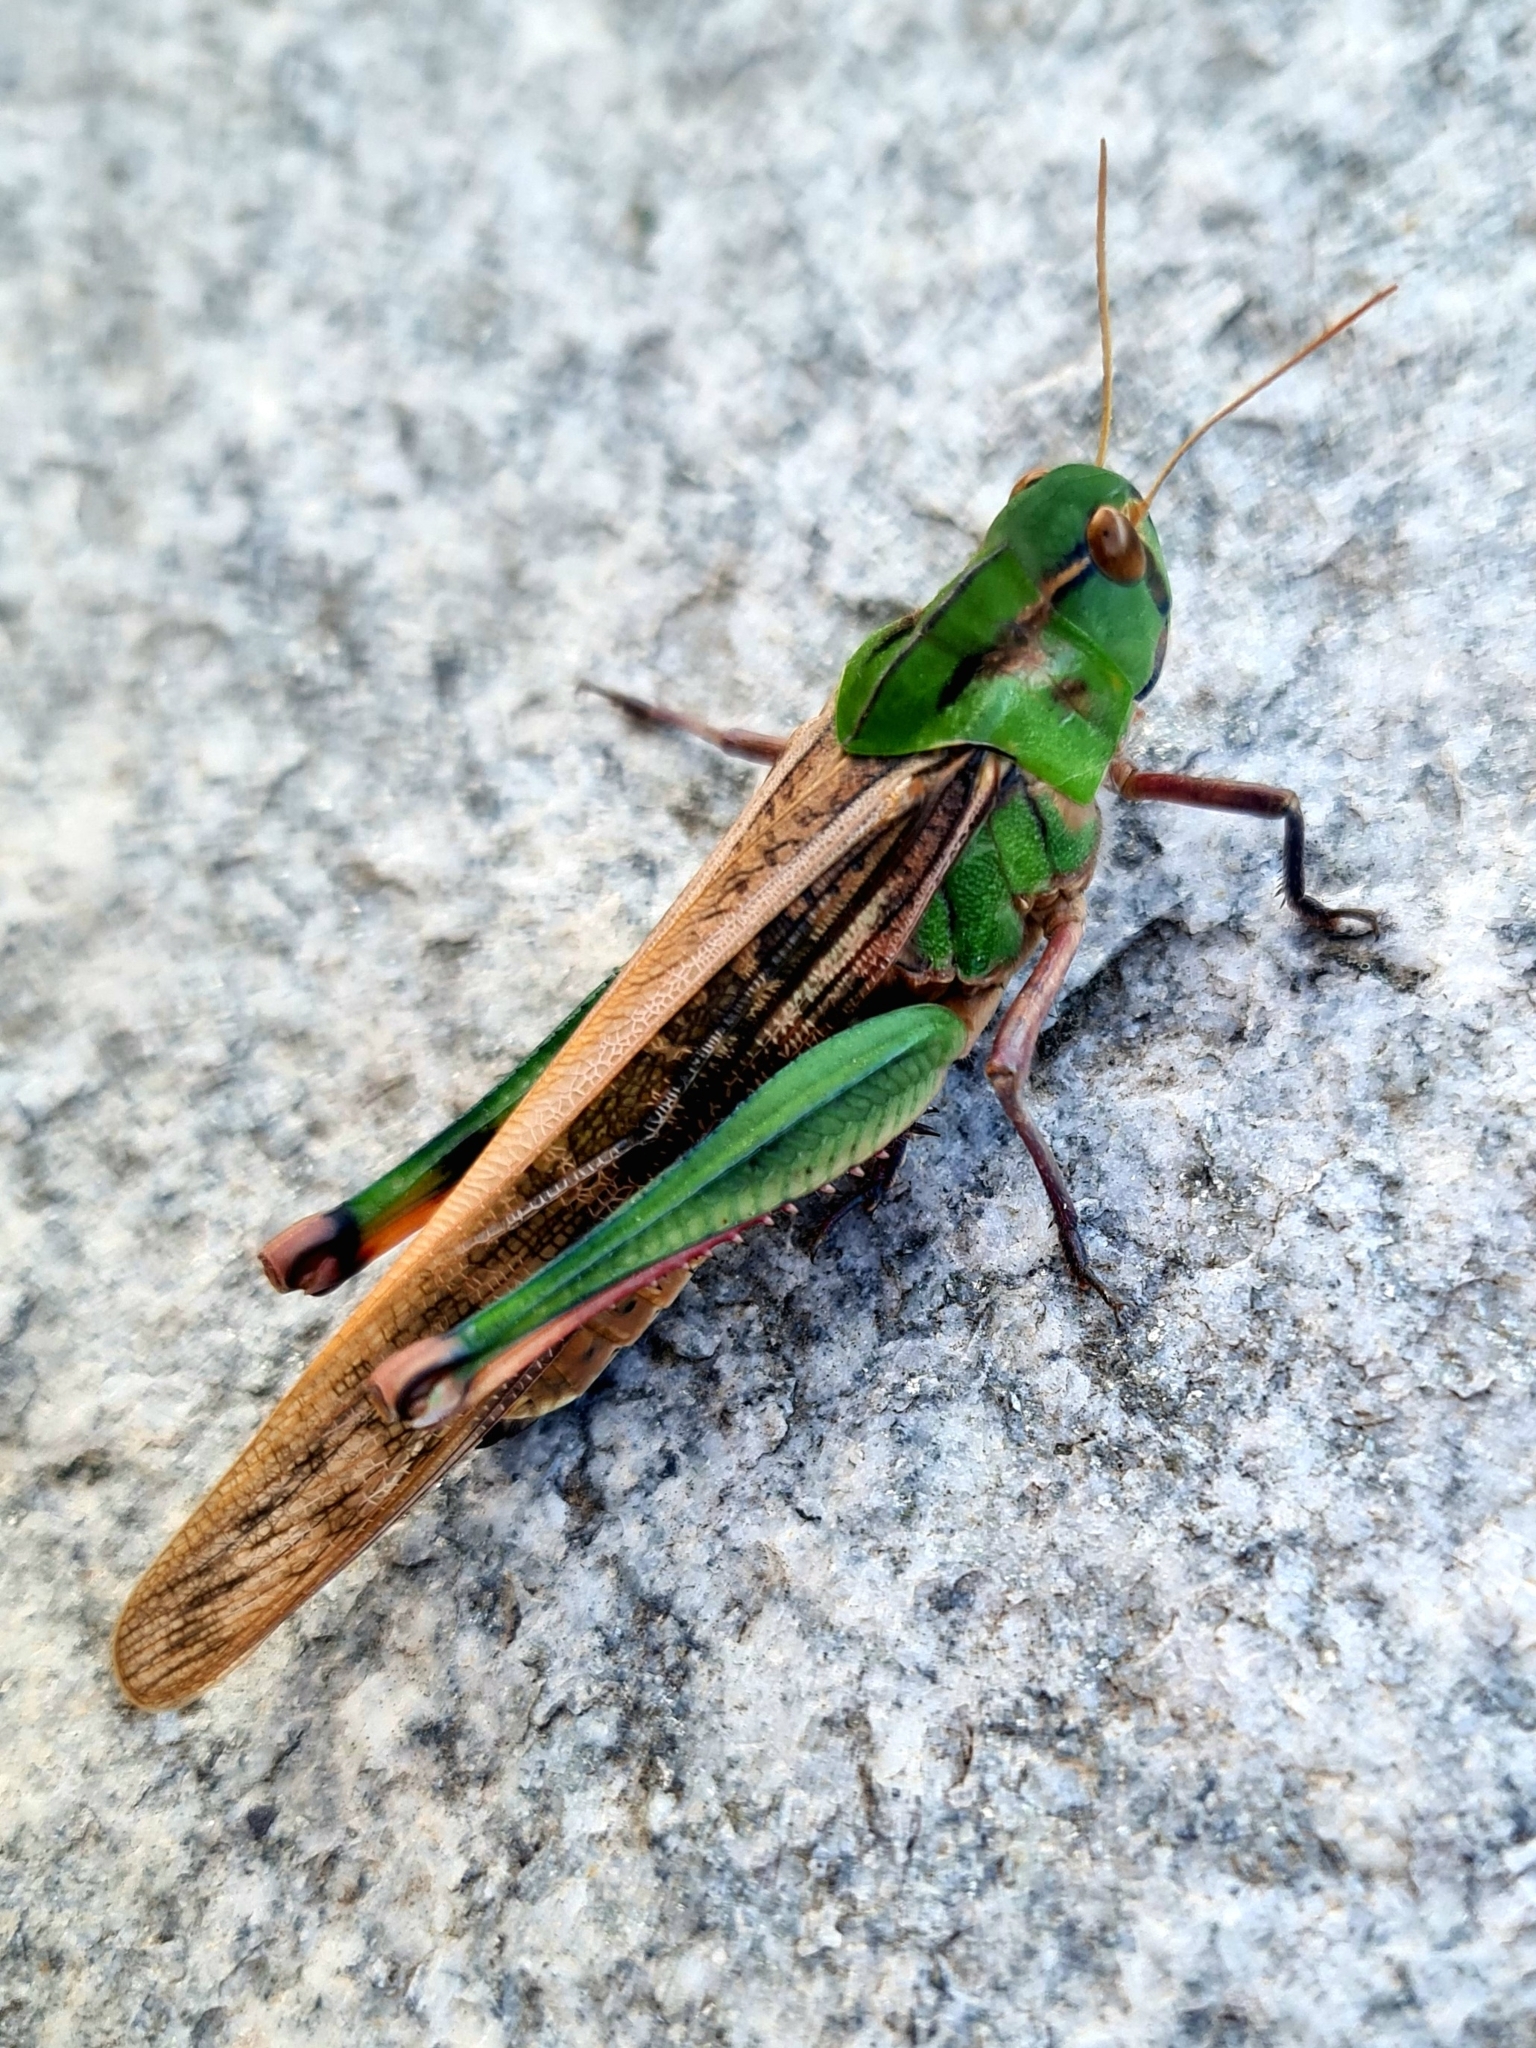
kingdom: Animalia
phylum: Arthropoda
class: Insecta
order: Orthoptera
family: Acrididae
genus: Locusta
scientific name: Locusta migratoria
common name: Migratory locust
